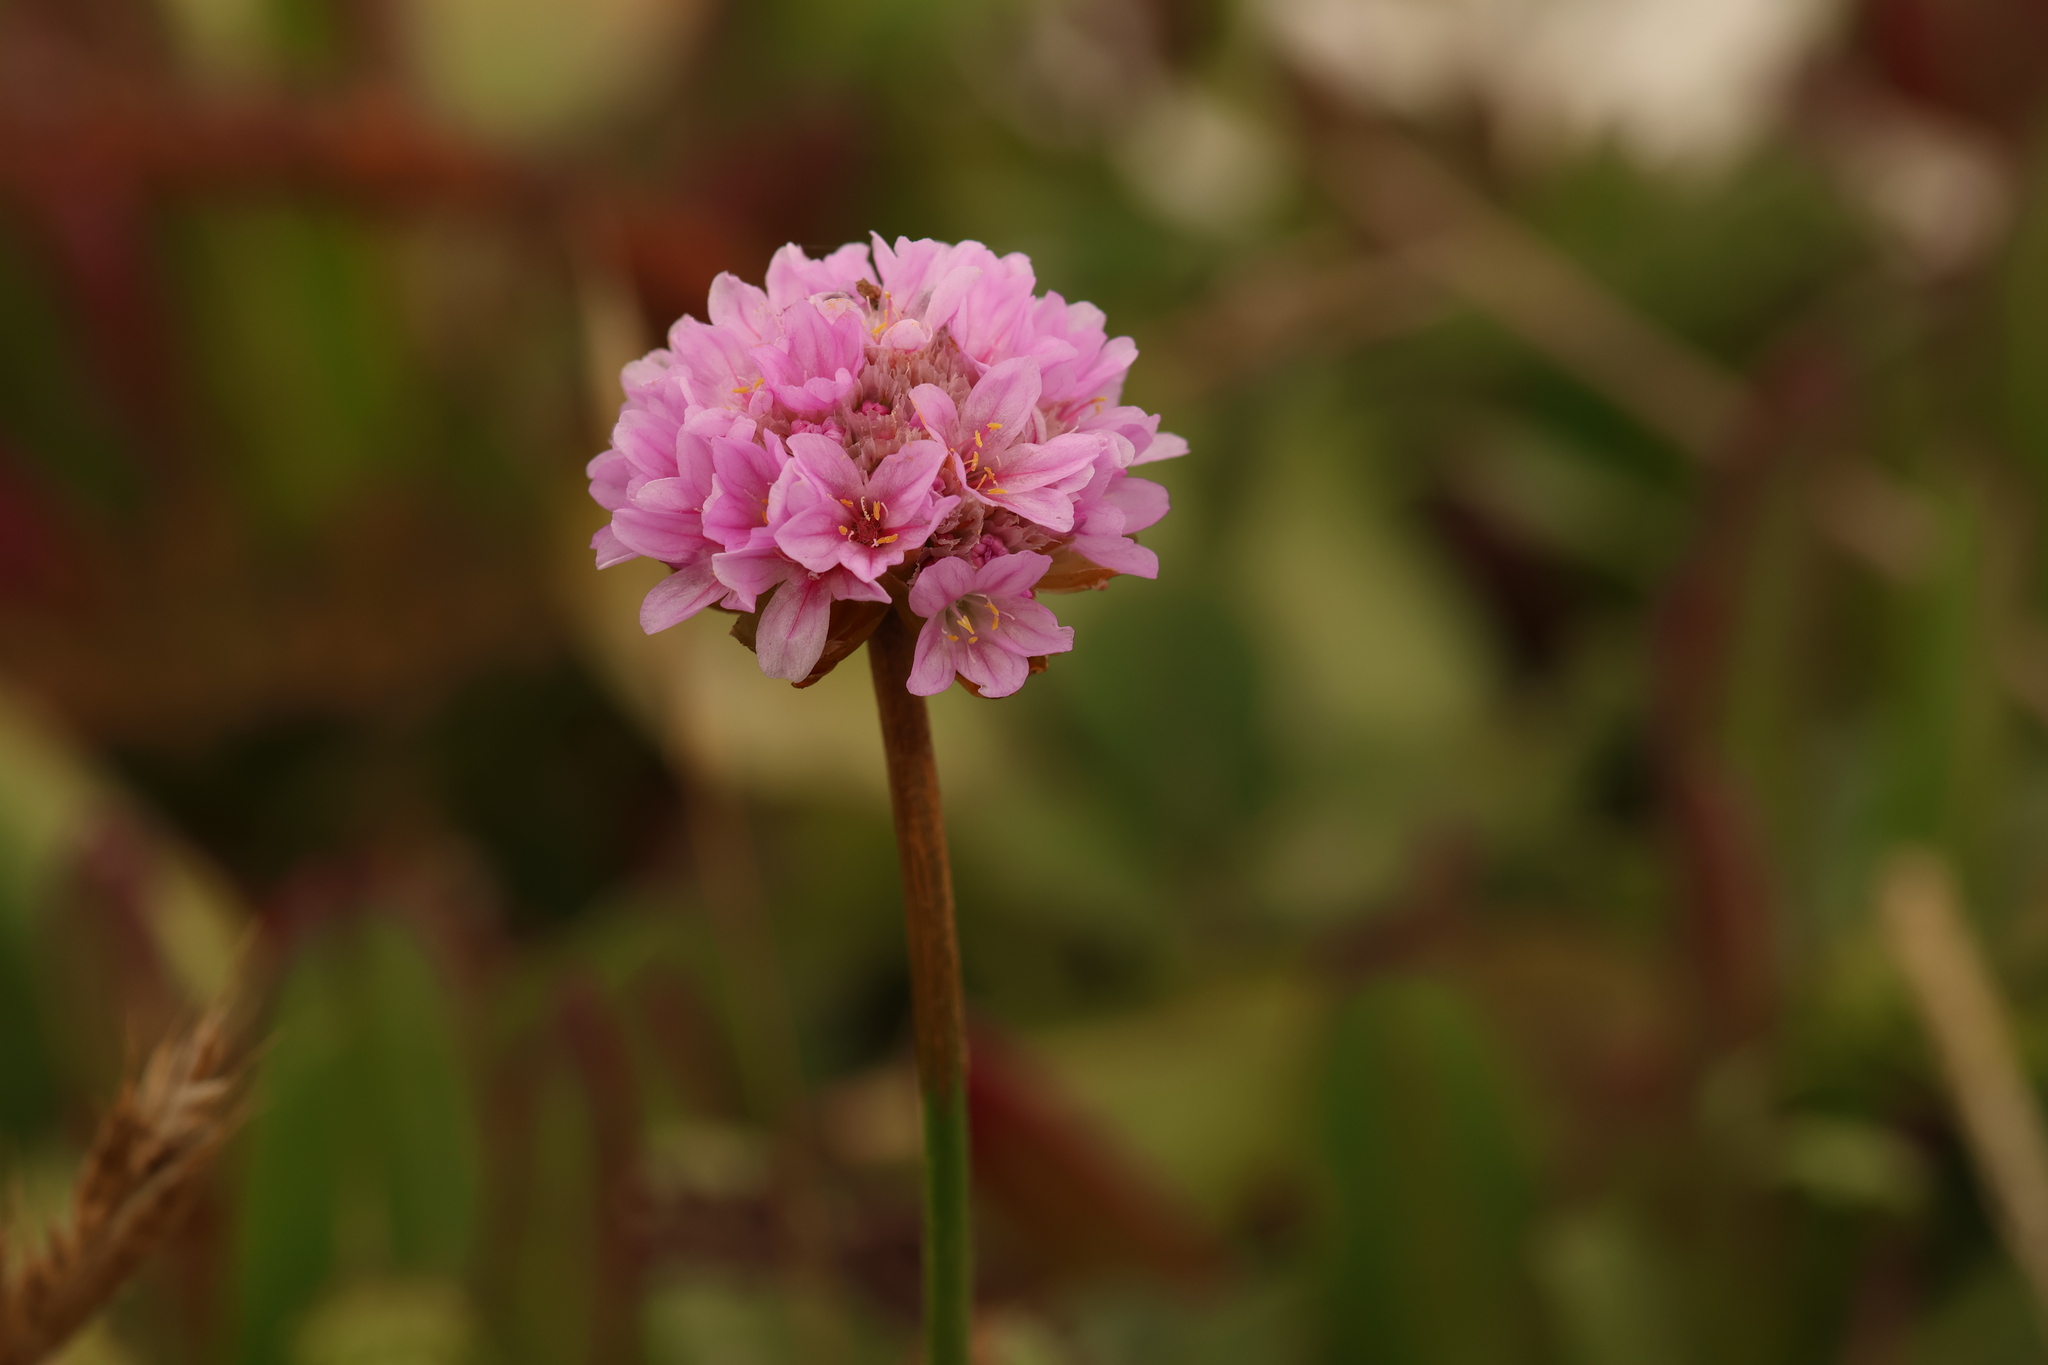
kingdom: Plantae
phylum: Tracheophyta
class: Magnoliopsida
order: Caryophyllales
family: Plumbaginaceae
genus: Armeria
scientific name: Armeria maritima
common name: Thrift
